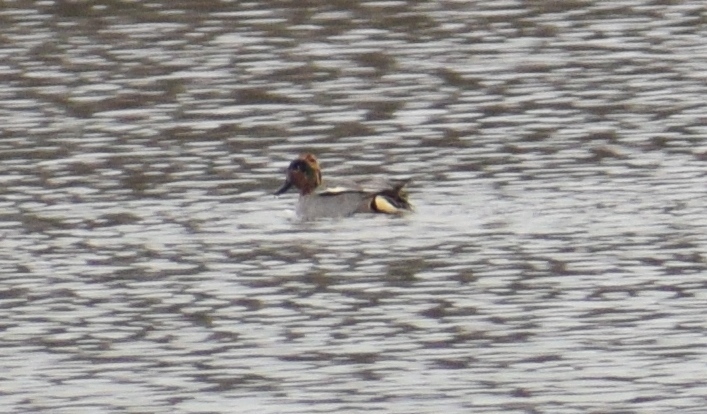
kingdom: Animalia
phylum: Chordata
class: Aves
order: Anseriformes
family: Anatidae
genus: Anas
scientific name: Anas crecca
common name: Eurasian teal
